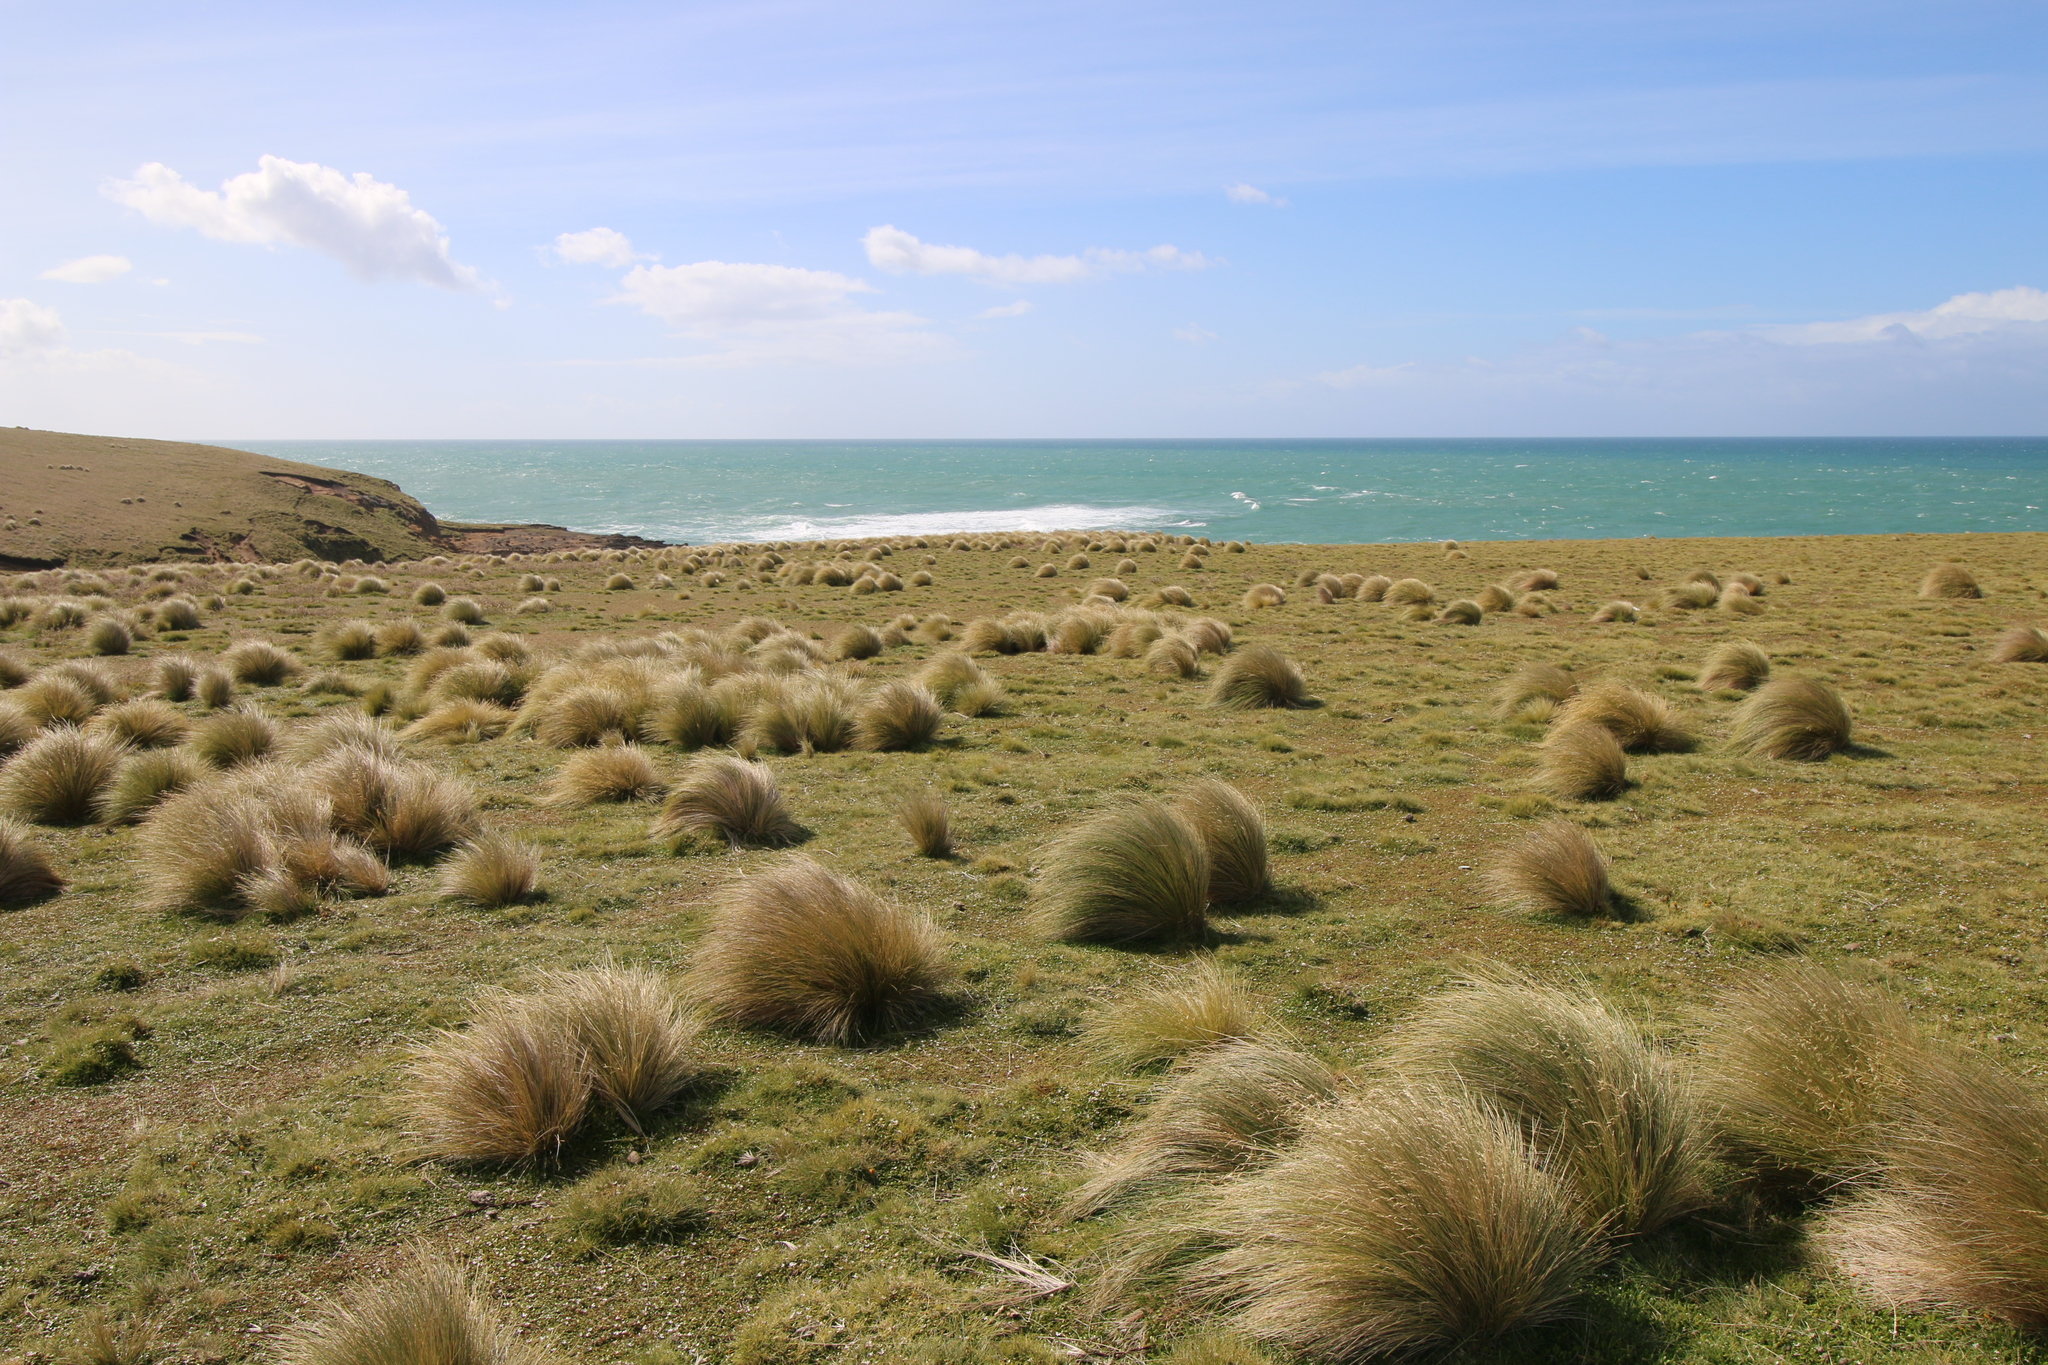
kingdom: Plantae
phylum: Tracheophyta
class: Liliopsida
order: Poales
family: Poaceae
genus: Poa
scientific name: Poa cita
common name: Silver tussock
